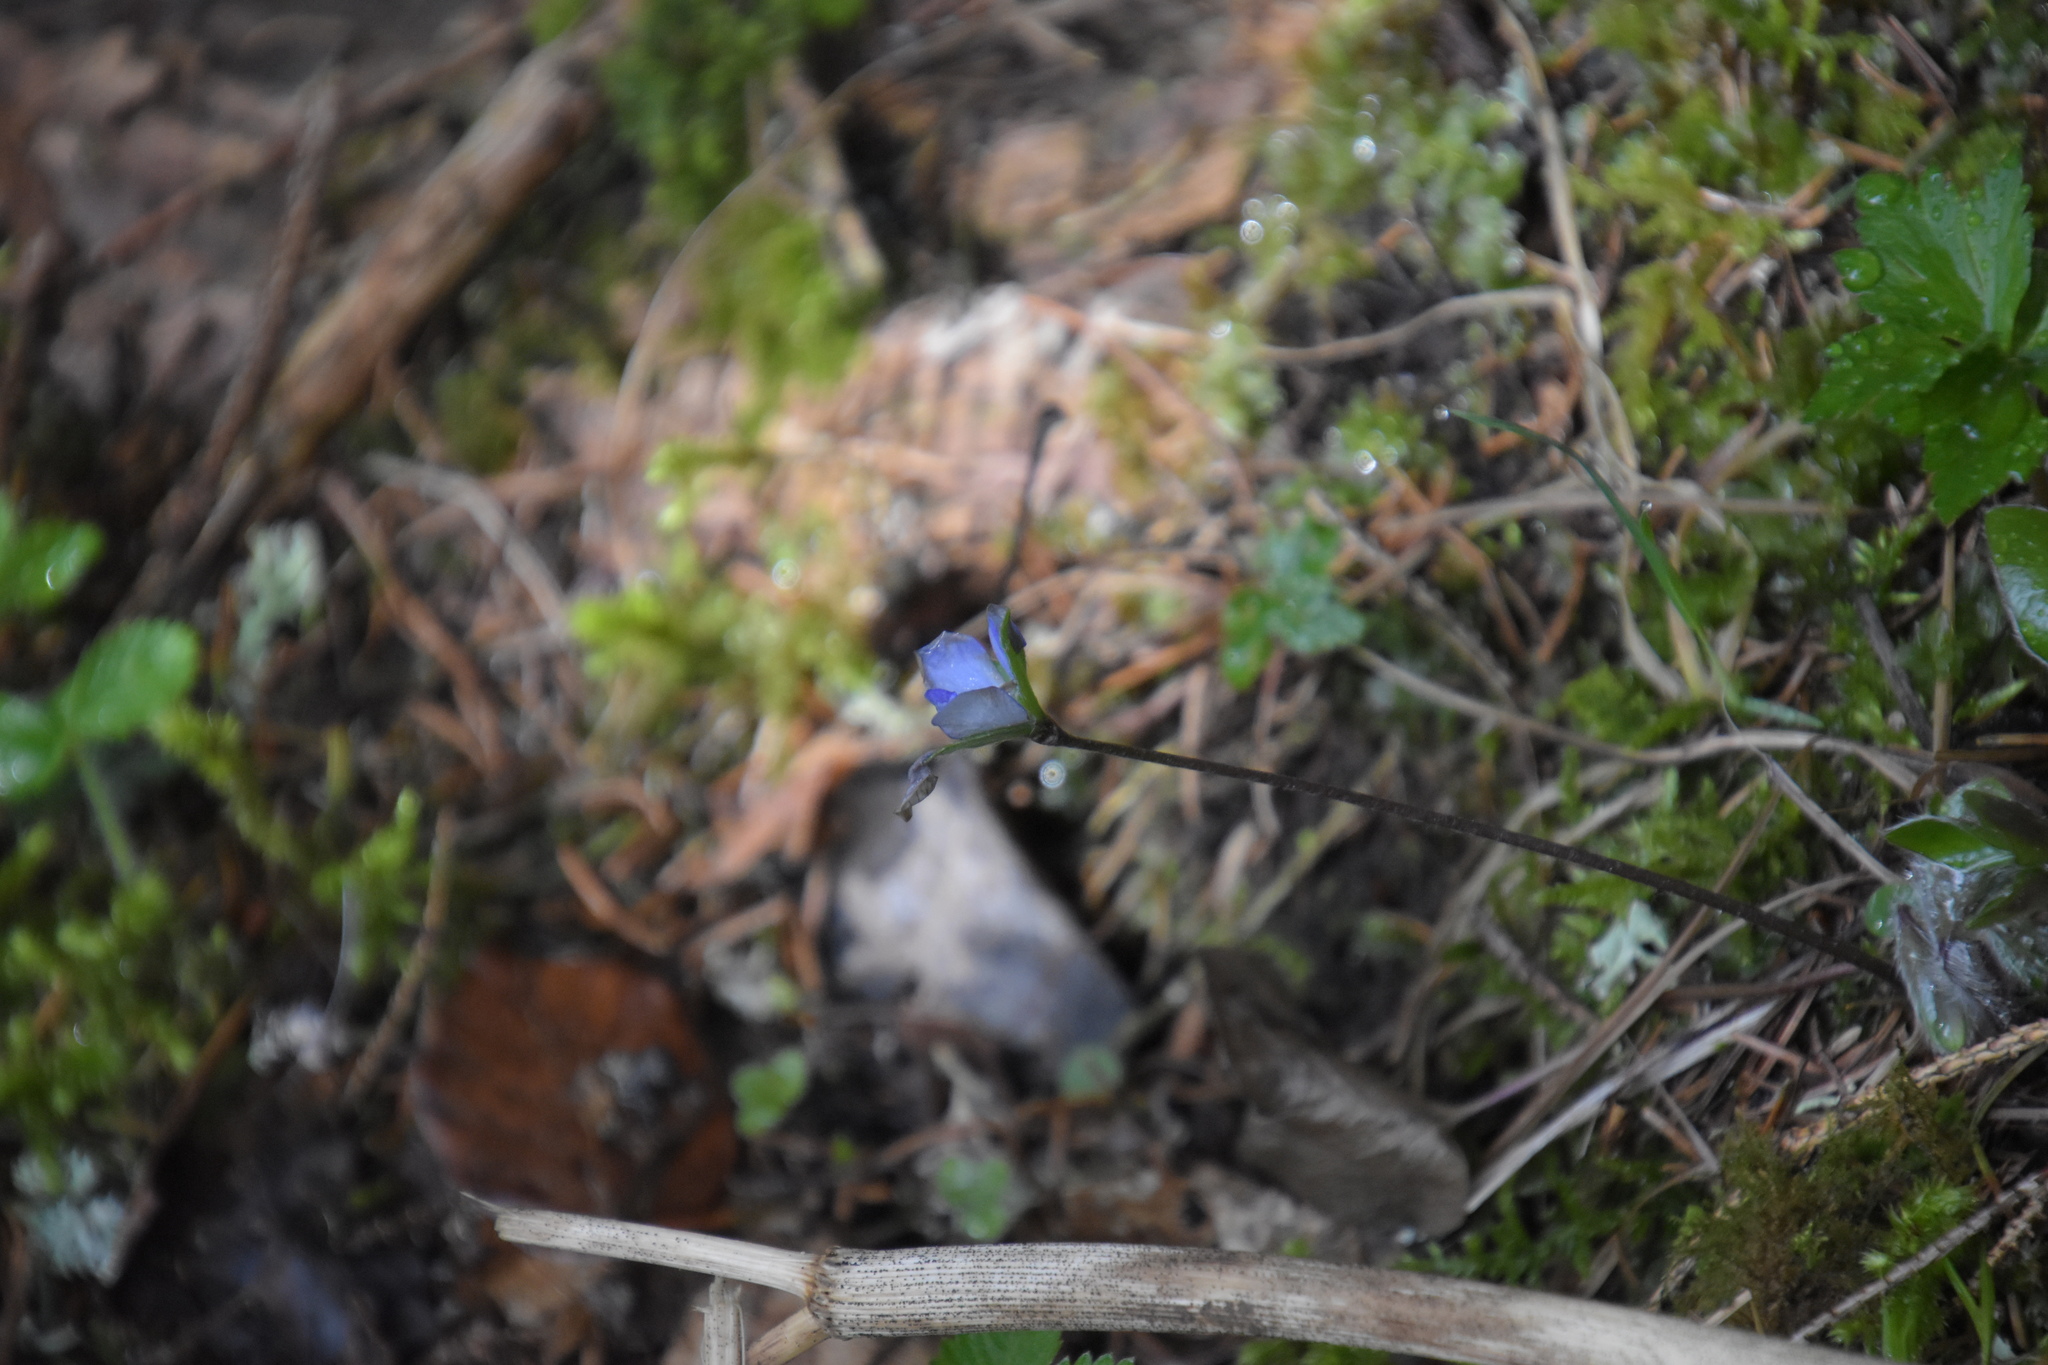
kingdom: Plantae
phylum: Tracheophyta
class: Magnoliopsida
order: Ranunculales
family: Ranunculaceae
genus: Hepatica
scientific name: Hepatica nobilis
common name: Liverleaf
